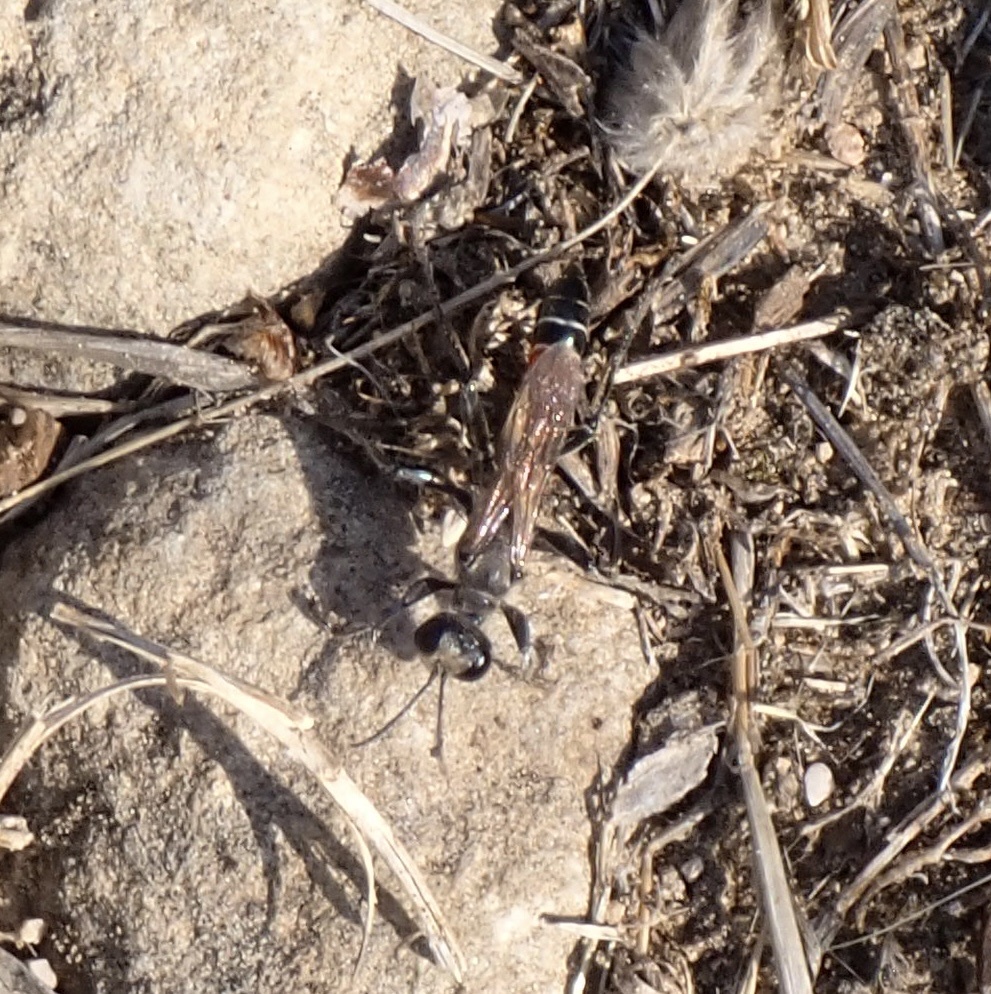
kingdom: Animalia
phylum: Arthropoda
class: Insecta
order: Hymenoptera
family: Sphecidae
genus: Prionyx
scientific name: Prionyx kirbii
